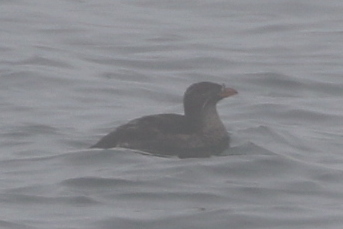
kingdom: Animalia
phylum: Chordata
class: Aves
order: Charadriiformes
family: Alcidae
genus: Cerorhinca
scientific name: Cerorhinca monocerata
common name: Rhinoceros auklet
